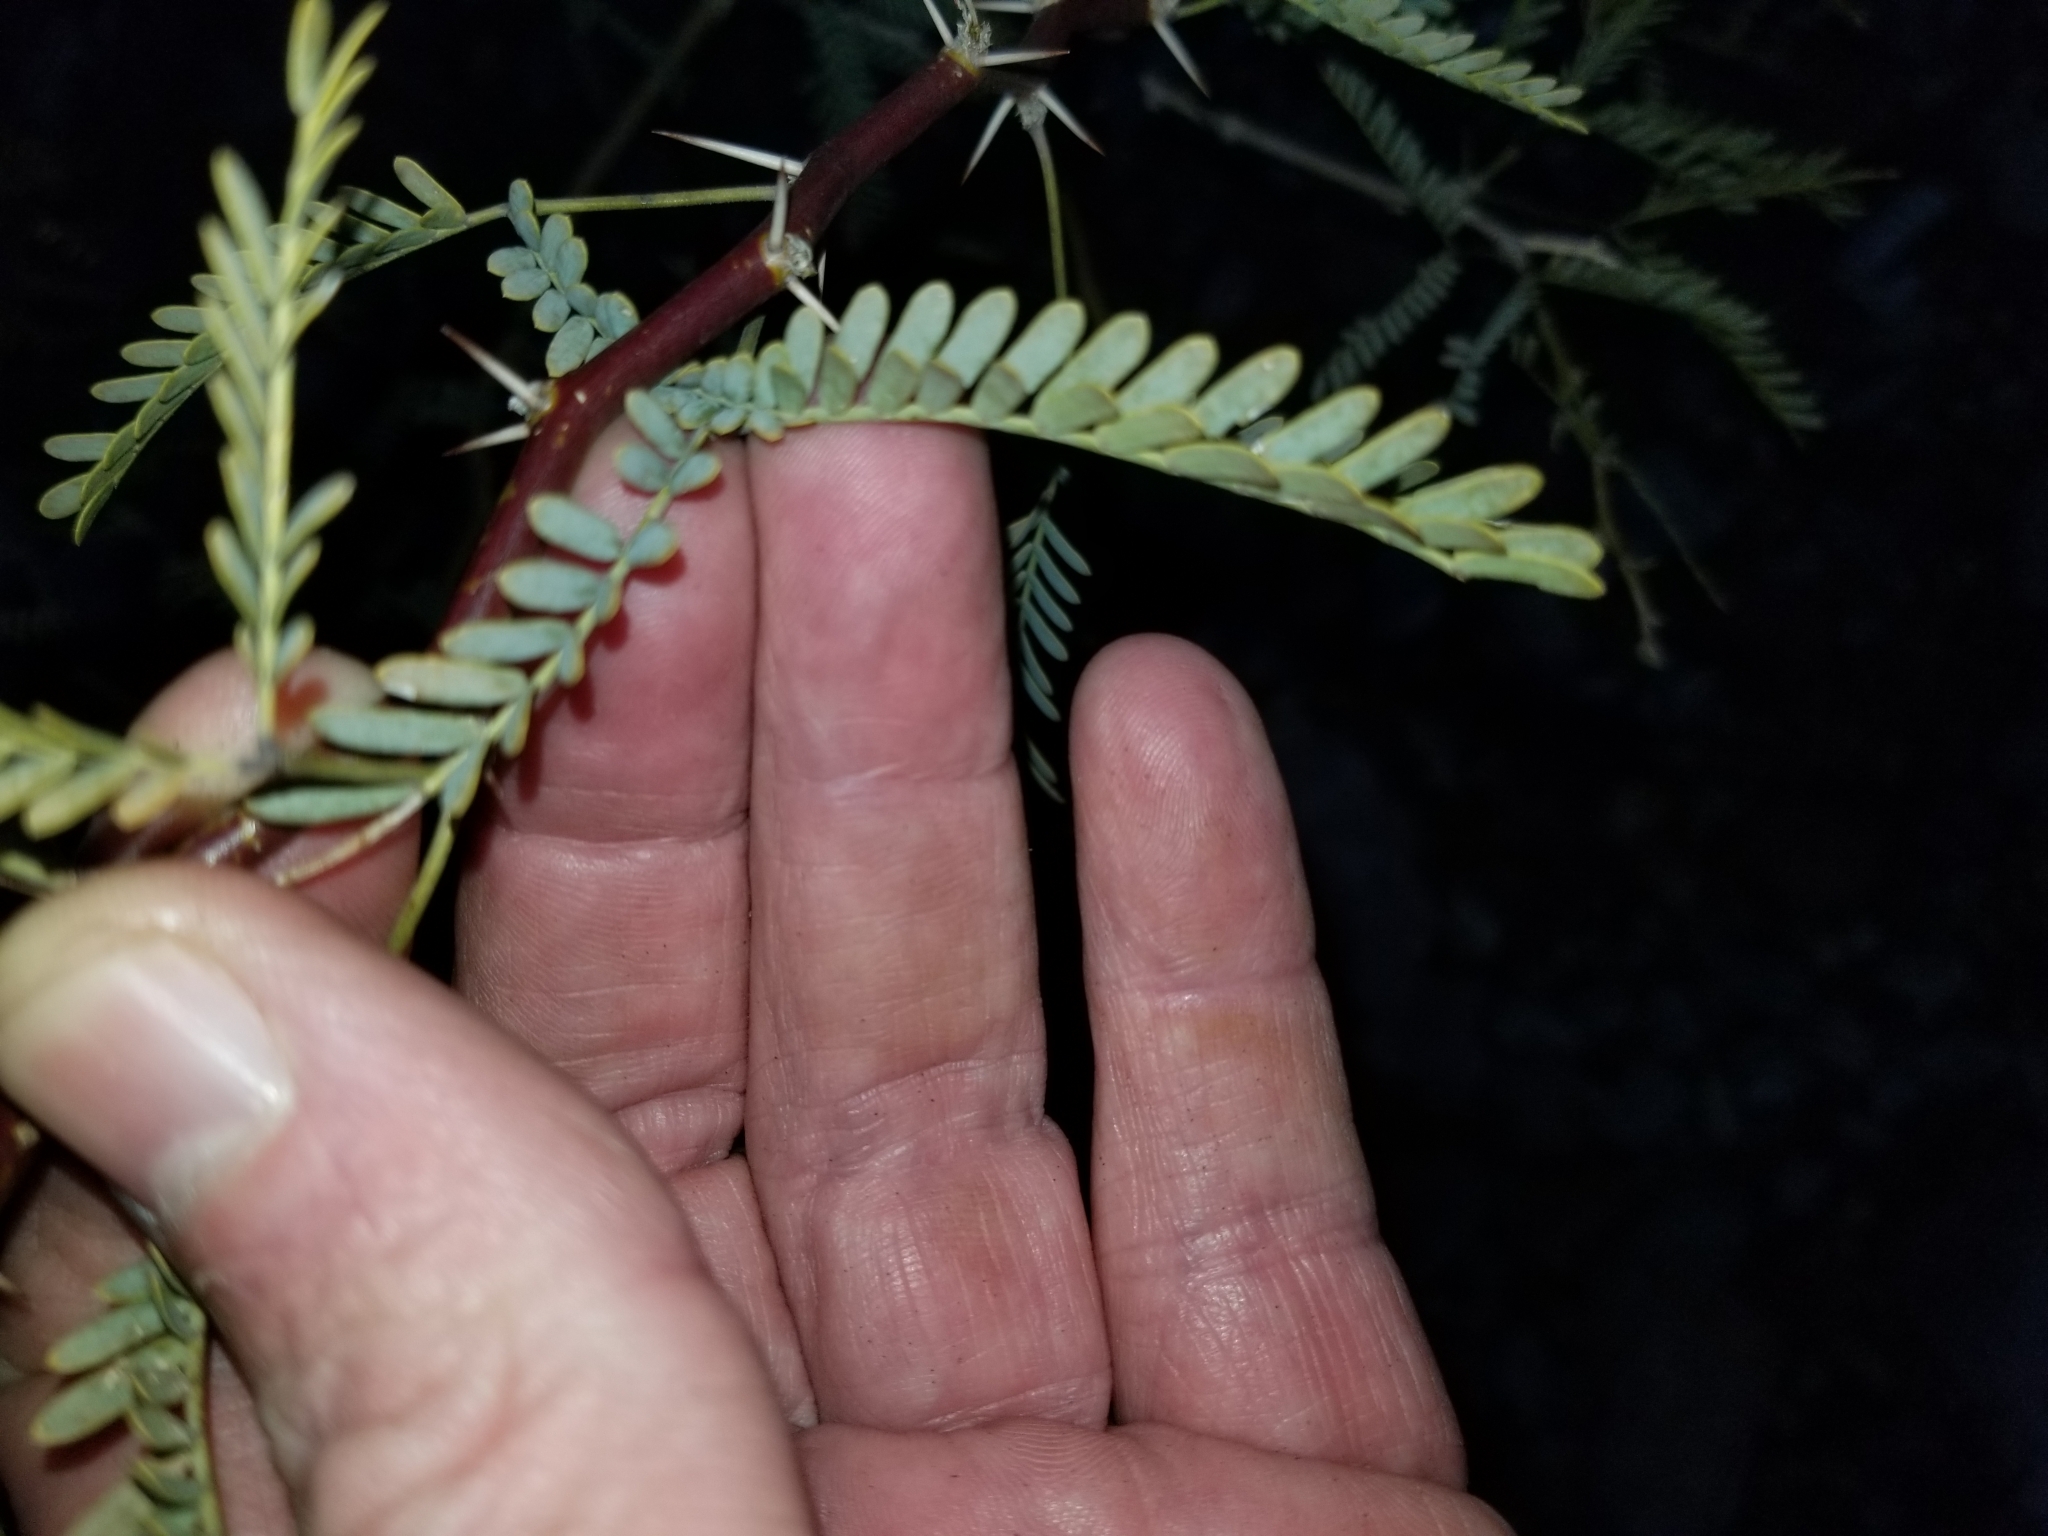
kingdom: Plantae
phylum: Tracheophyta
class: Magnoliopsida
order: Fabales
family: Fabaceae
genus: Prosopis
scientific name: Prosopis velutina
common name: Velvet mesquite
